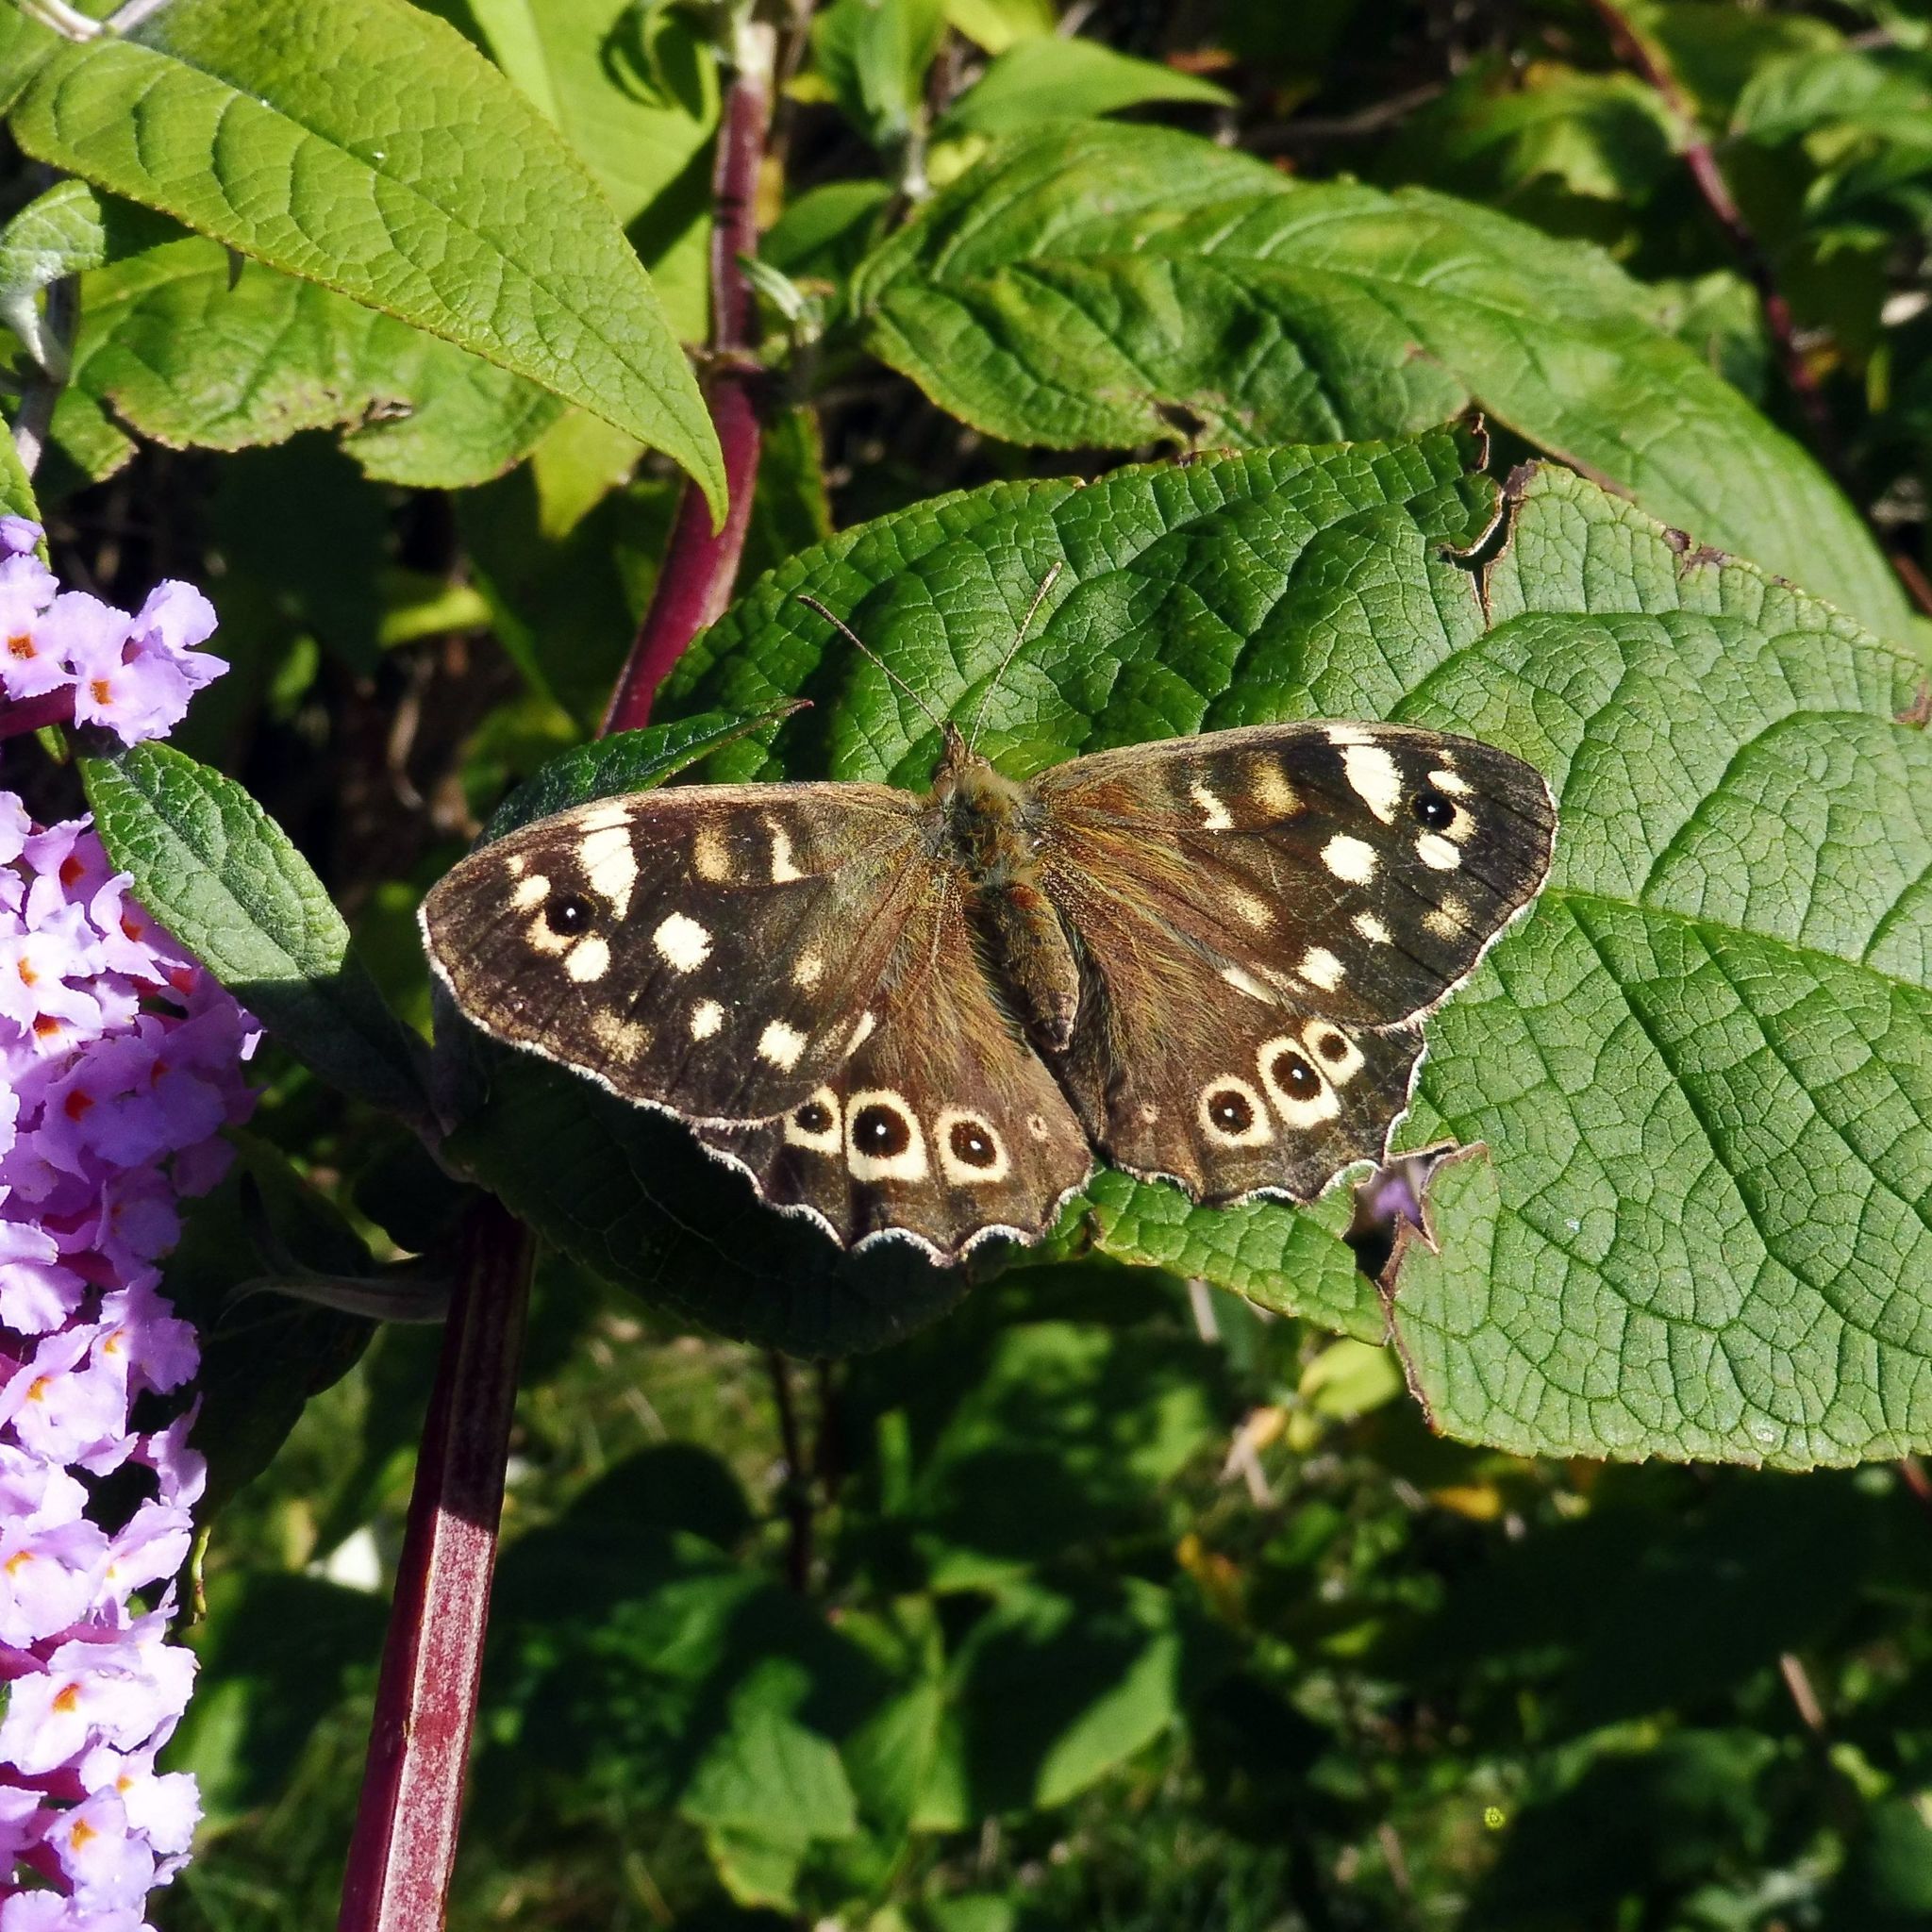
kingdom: Animalia
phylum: Arthropoda
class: Insecta
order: Lepidoptera
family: Nymphalidae
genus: Pararge
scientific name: Pararge aegeria
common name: Speckled wood
